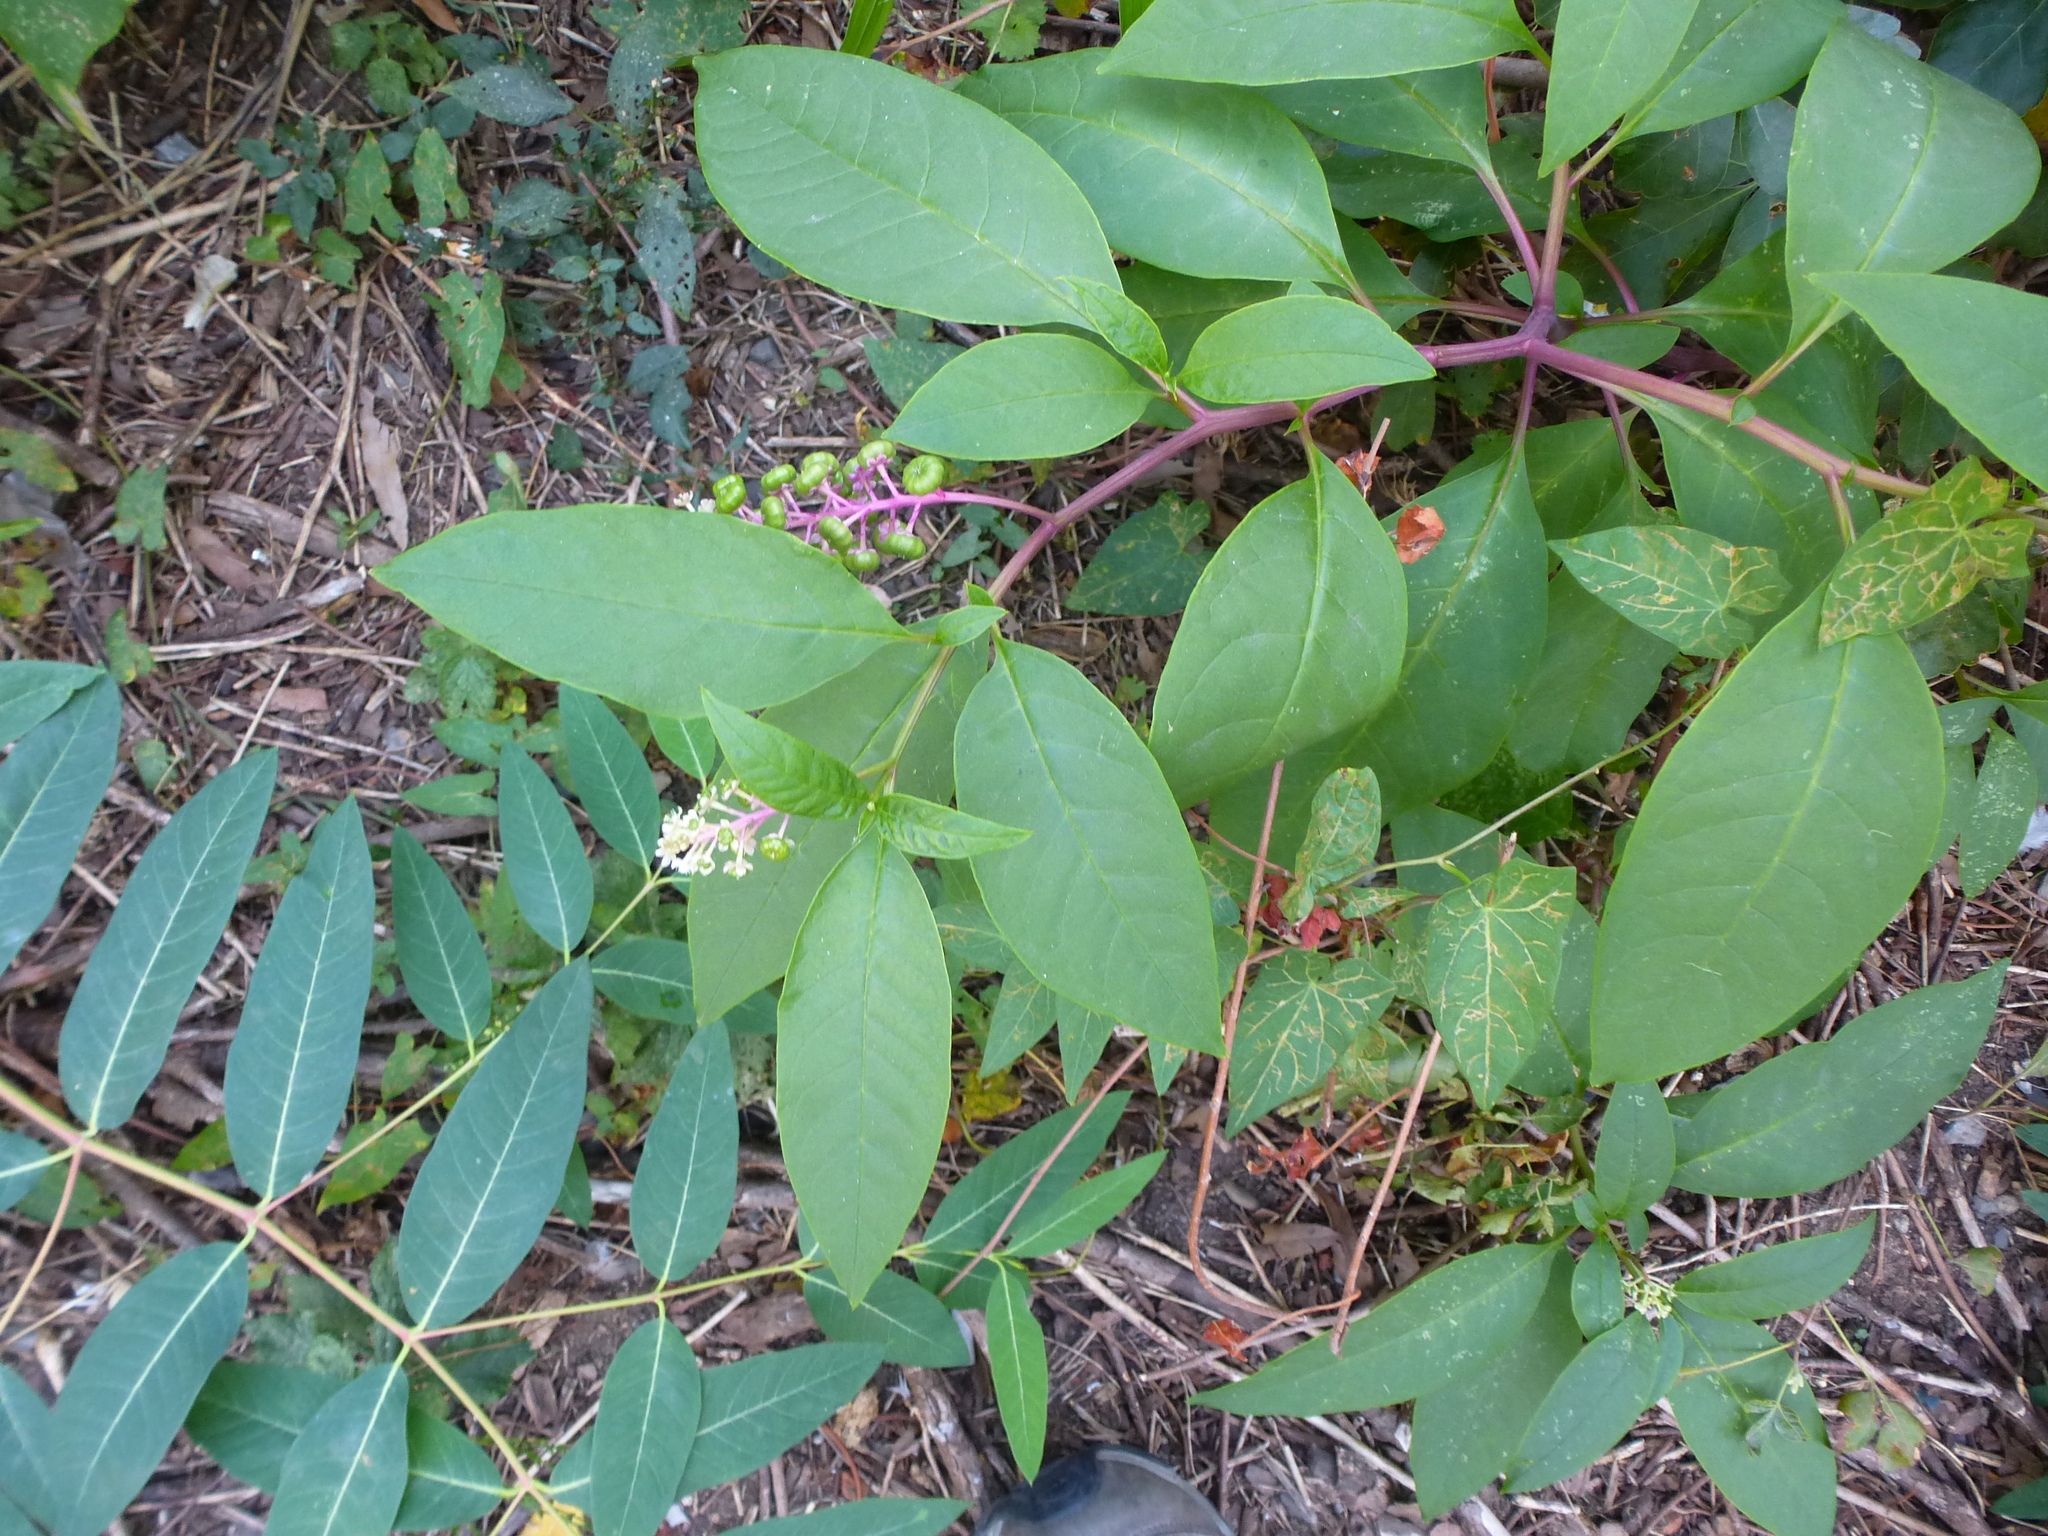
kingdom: Plantae
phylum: Tracheophyta
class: Magnoliopsida
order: Caryophyllales
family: Phytolaccaceae
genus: Phytolacca
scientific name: Phytolacca americana
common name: American pokeweed
